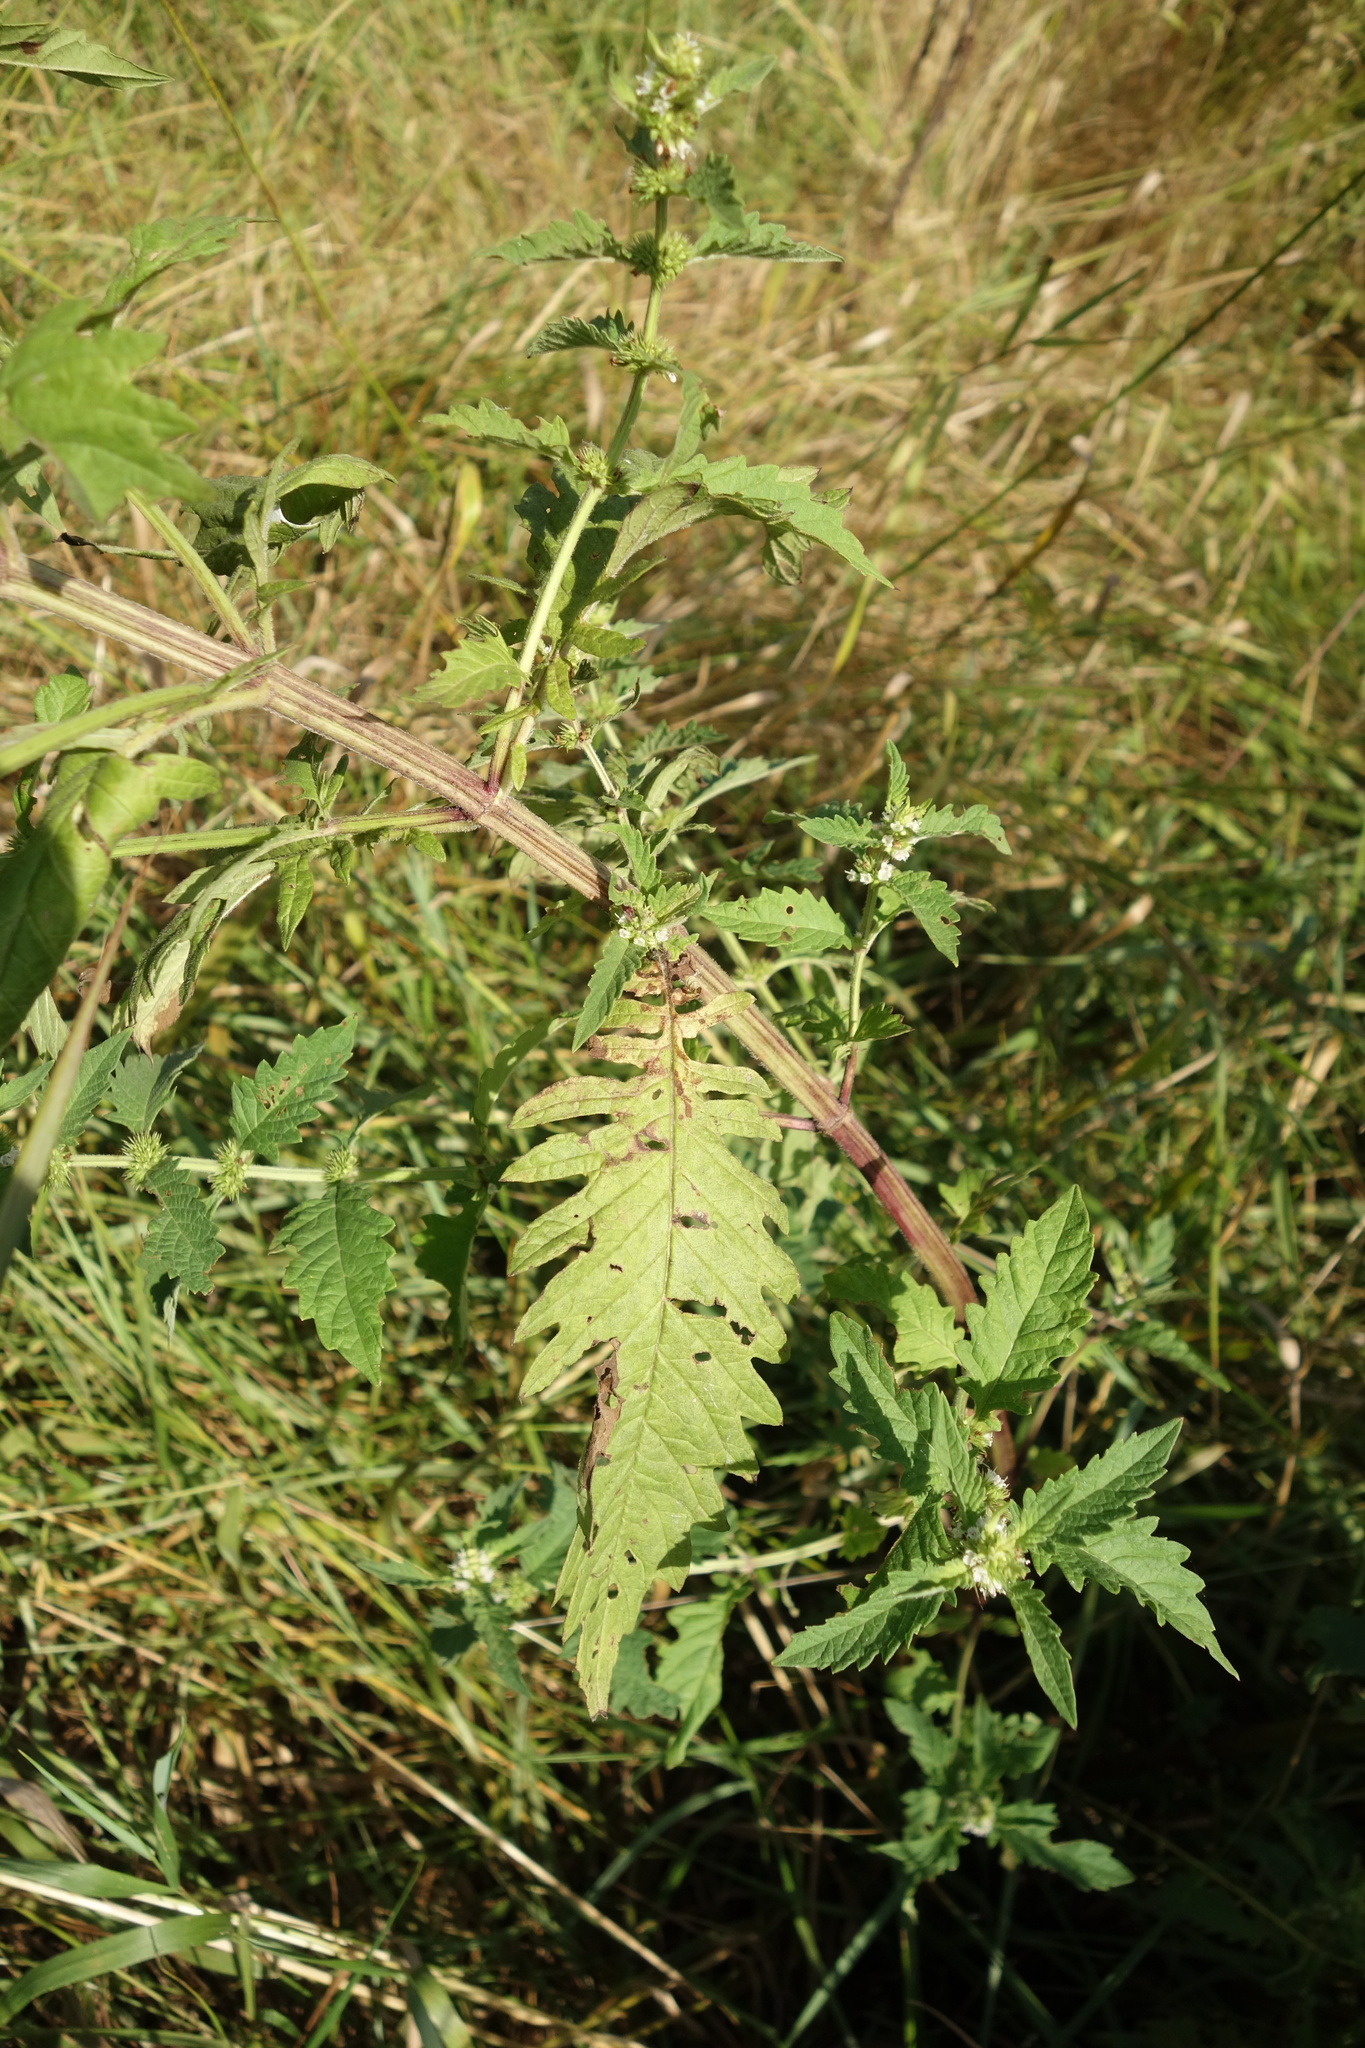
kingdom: Plantae
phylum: Tracheophyta
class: Magnoliopsida
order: Lamiales
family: Lamiaceae
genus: Lycopus
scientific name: Lycopus europaeus
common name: European bugleweed
